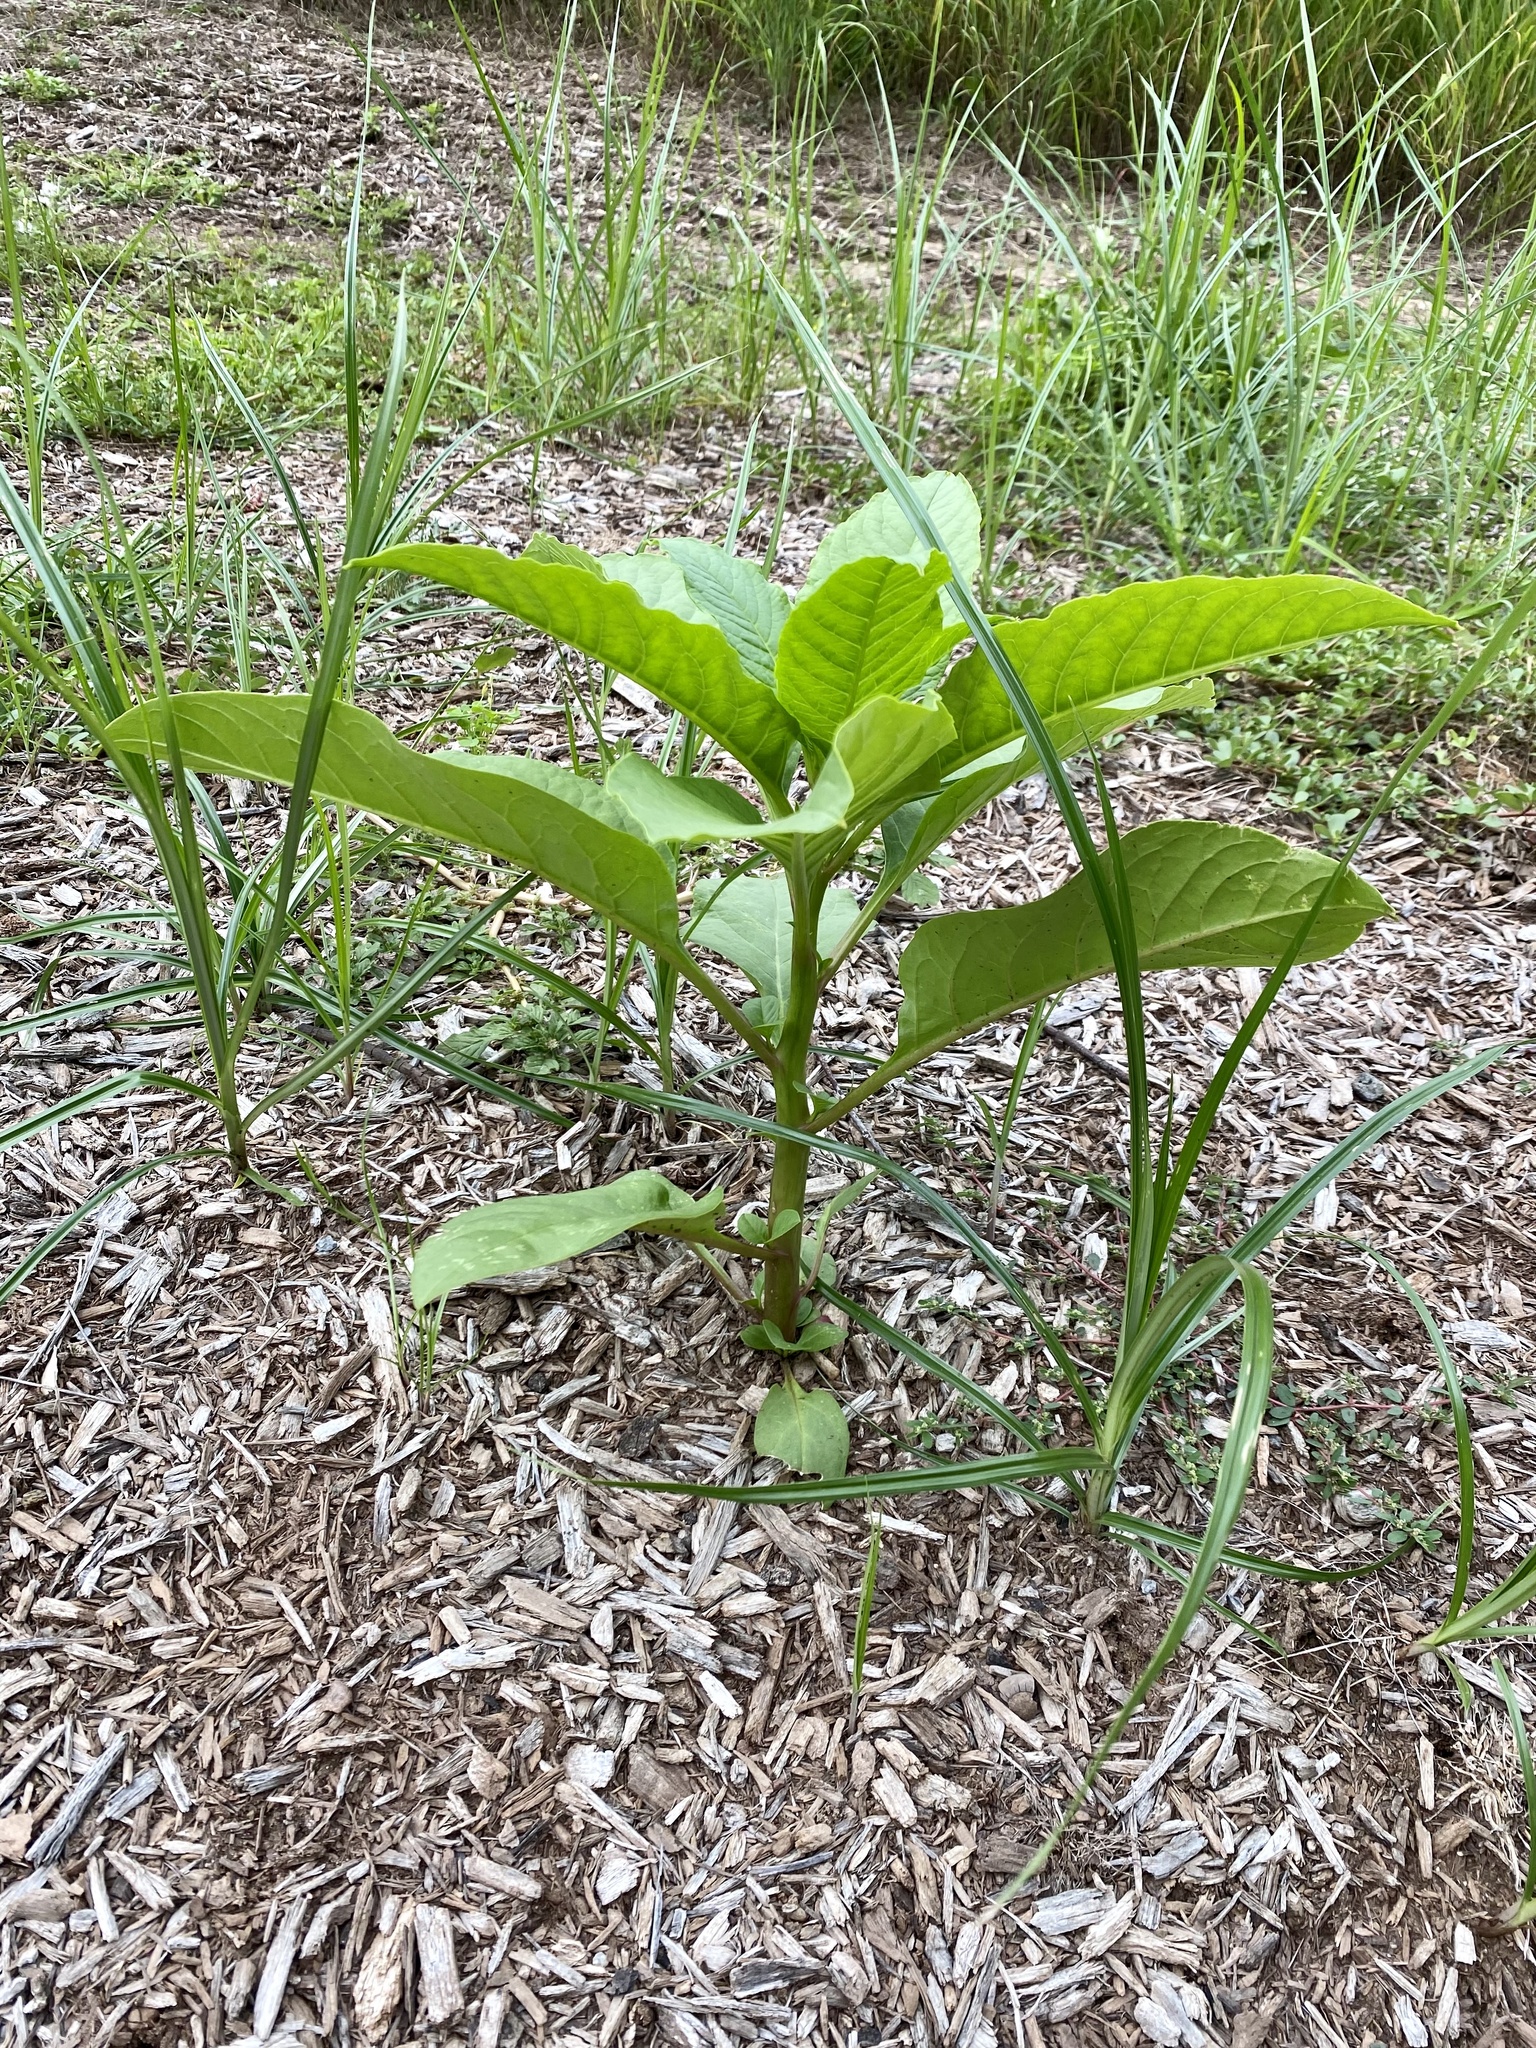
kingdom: Plantae
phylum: Tracheophyta
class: Magnoliopsida
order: Caryophyllales
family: Phytolaccaceae
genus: Phytolacca
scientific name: Phytolacca americana
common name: American pokeweed
